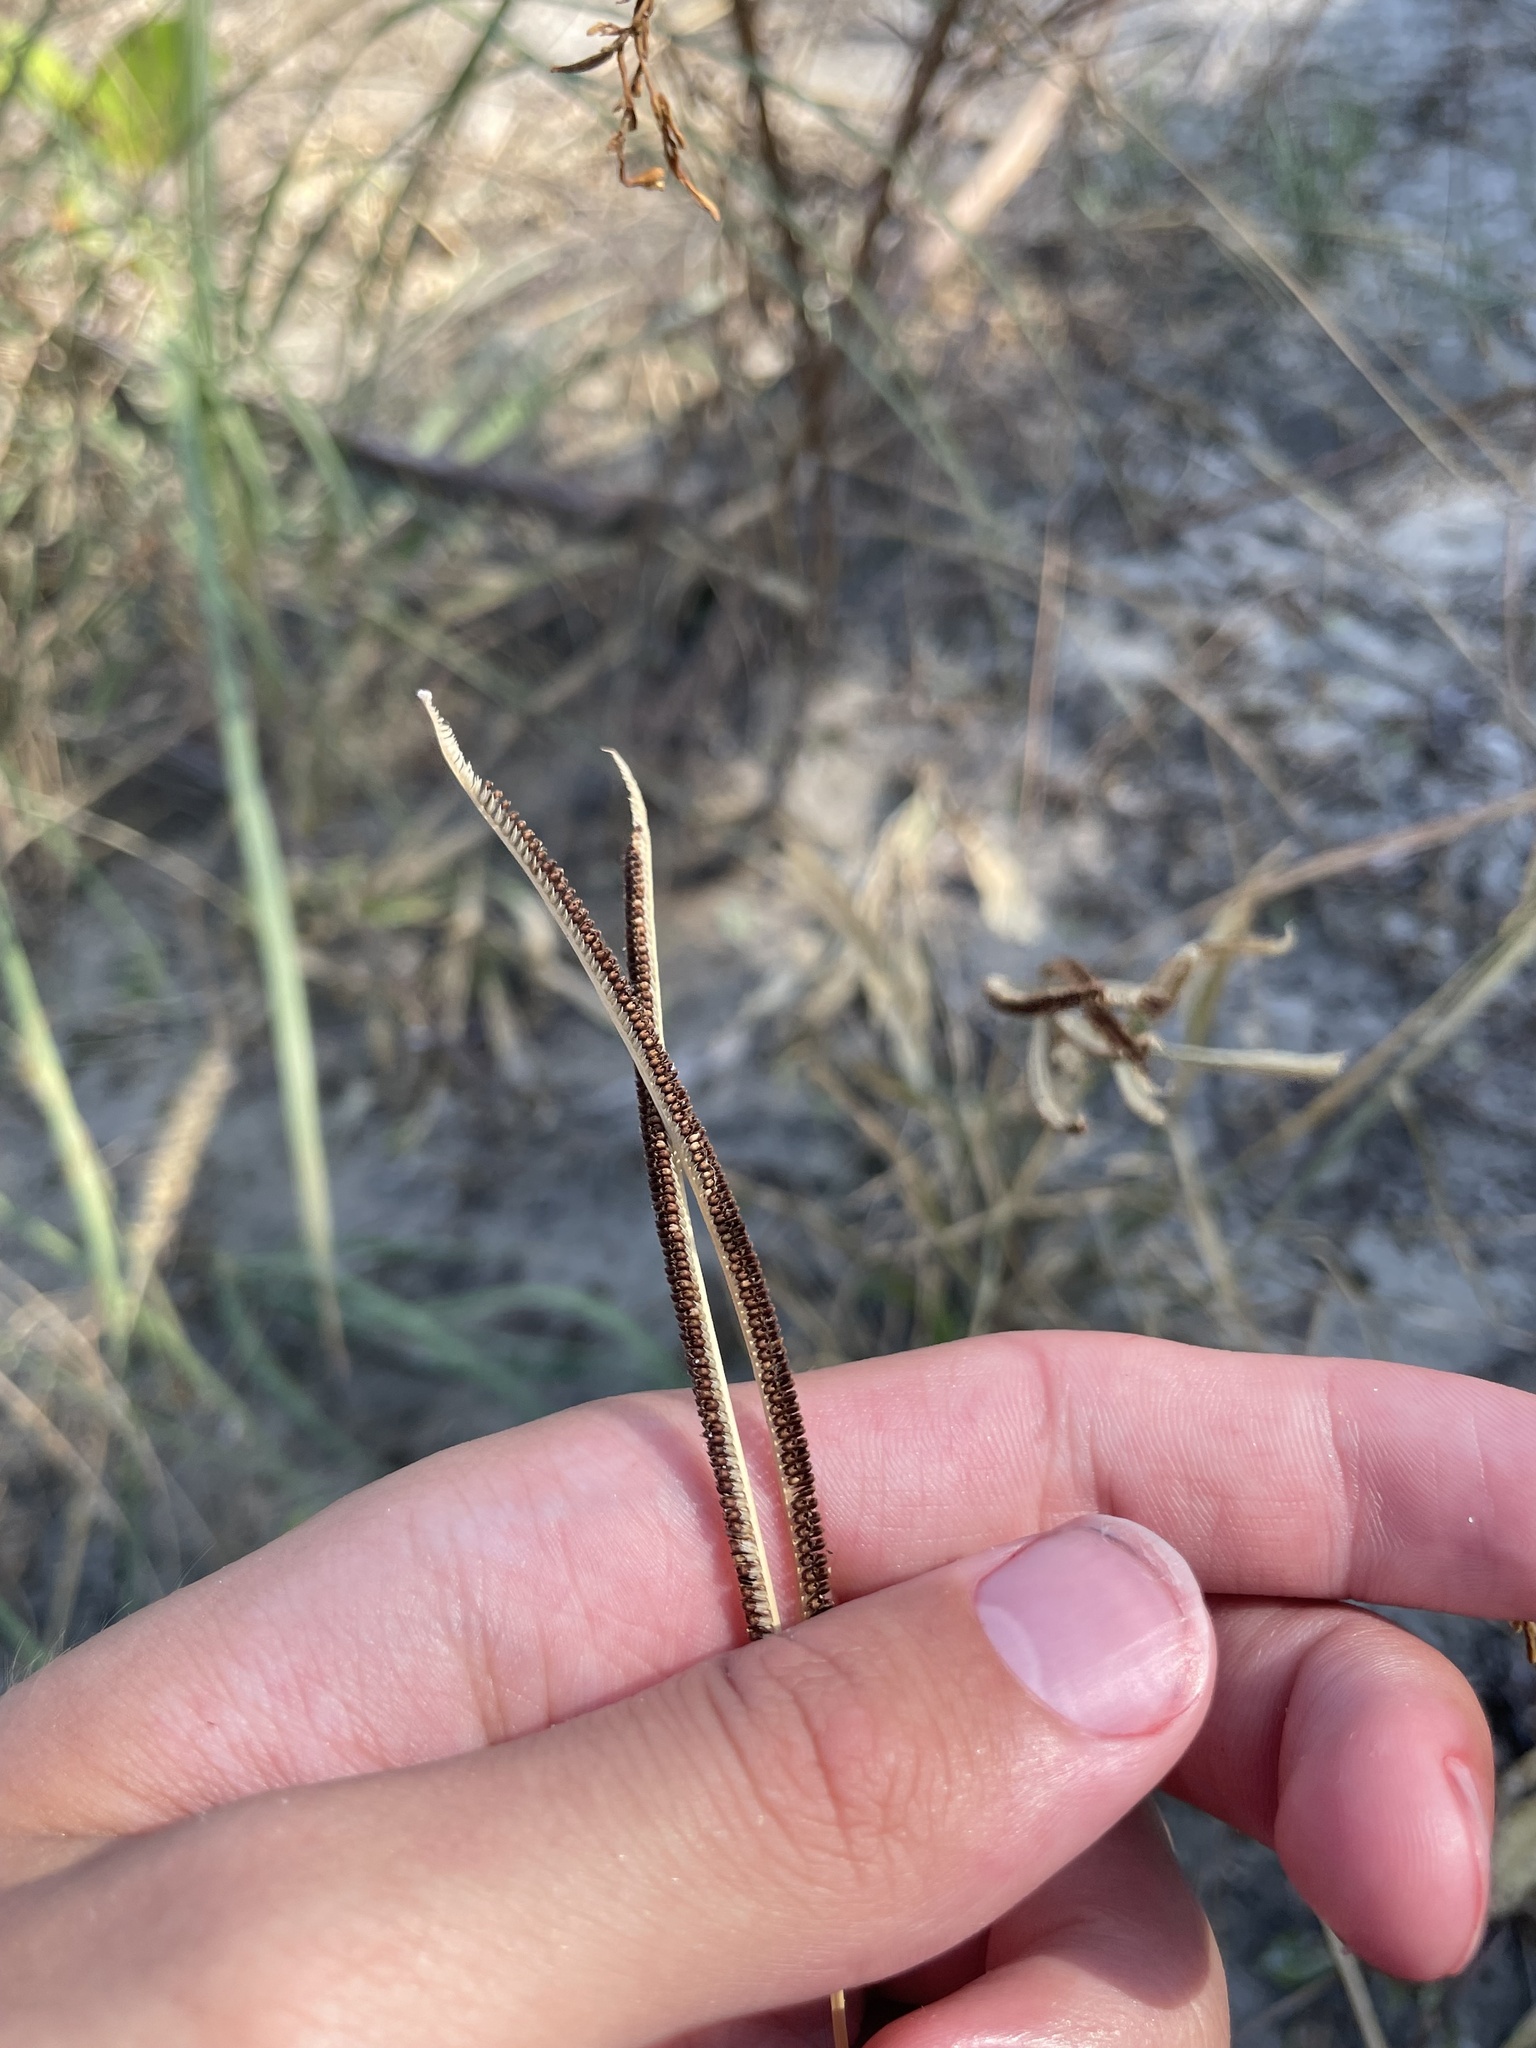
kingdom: Plantae
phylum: Tracheophyta
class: Liliopsida
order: Poales
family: Poaceae
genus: Eustachys
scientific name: Eustachys petraea
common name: Pinewoods fingergrass
